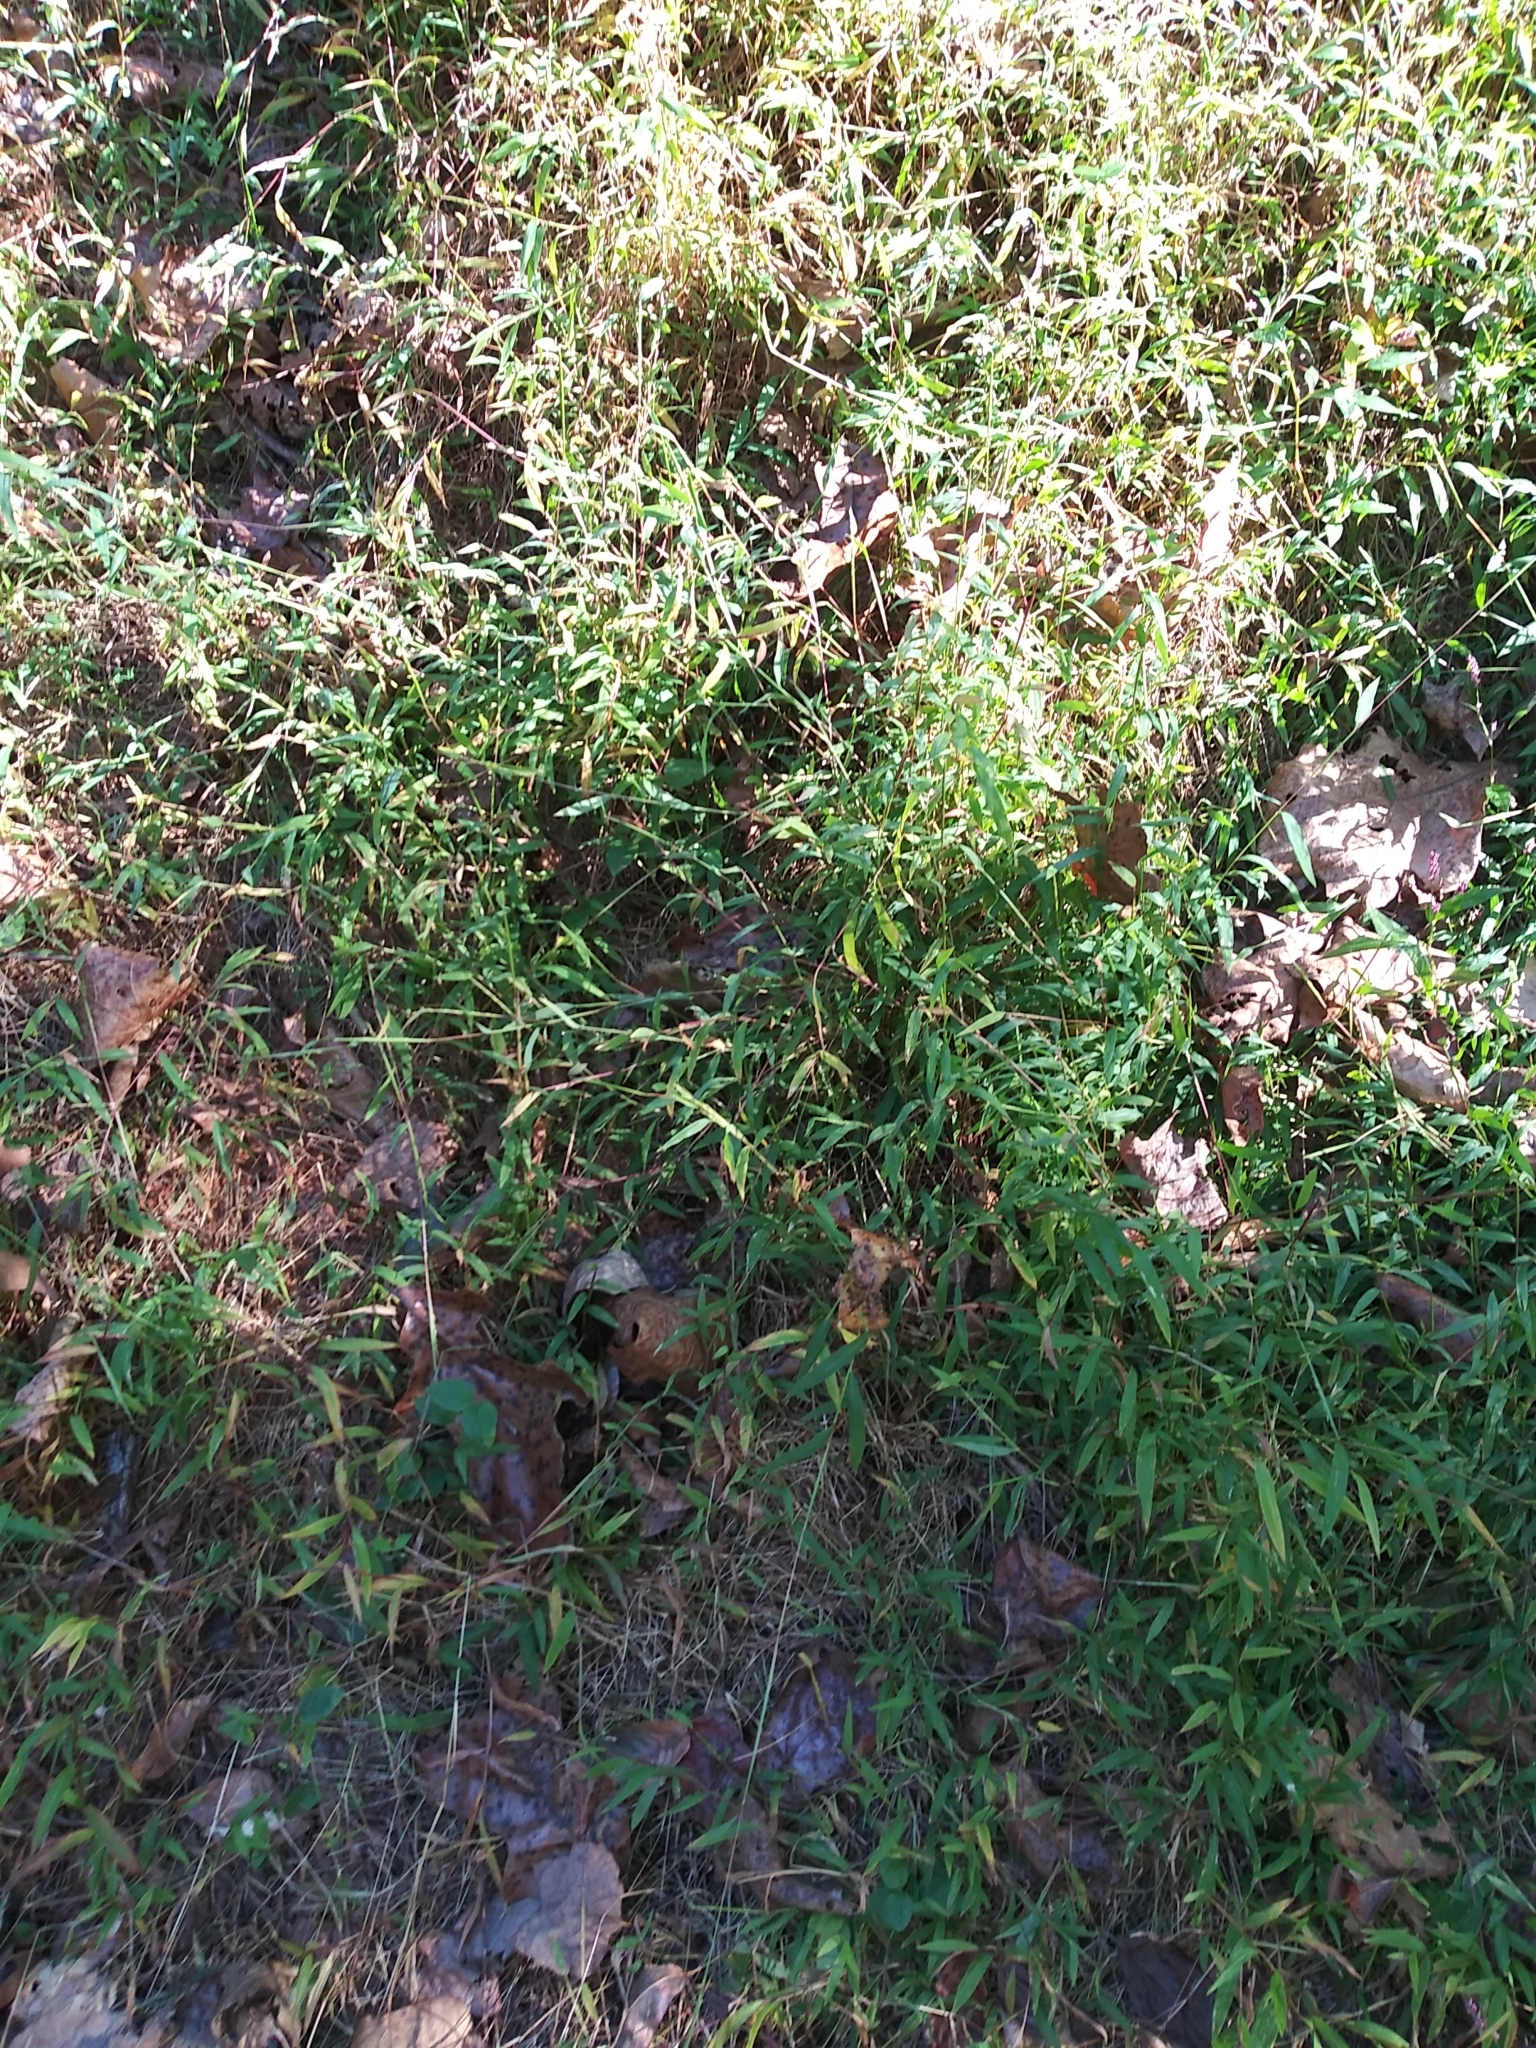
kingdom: Plantae
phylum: Tracheophyta
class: Liliopsida
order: Poales
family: Poaceae
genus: Microstegium
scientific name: Microstegium vimineum
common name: Japanese stiltgrass
